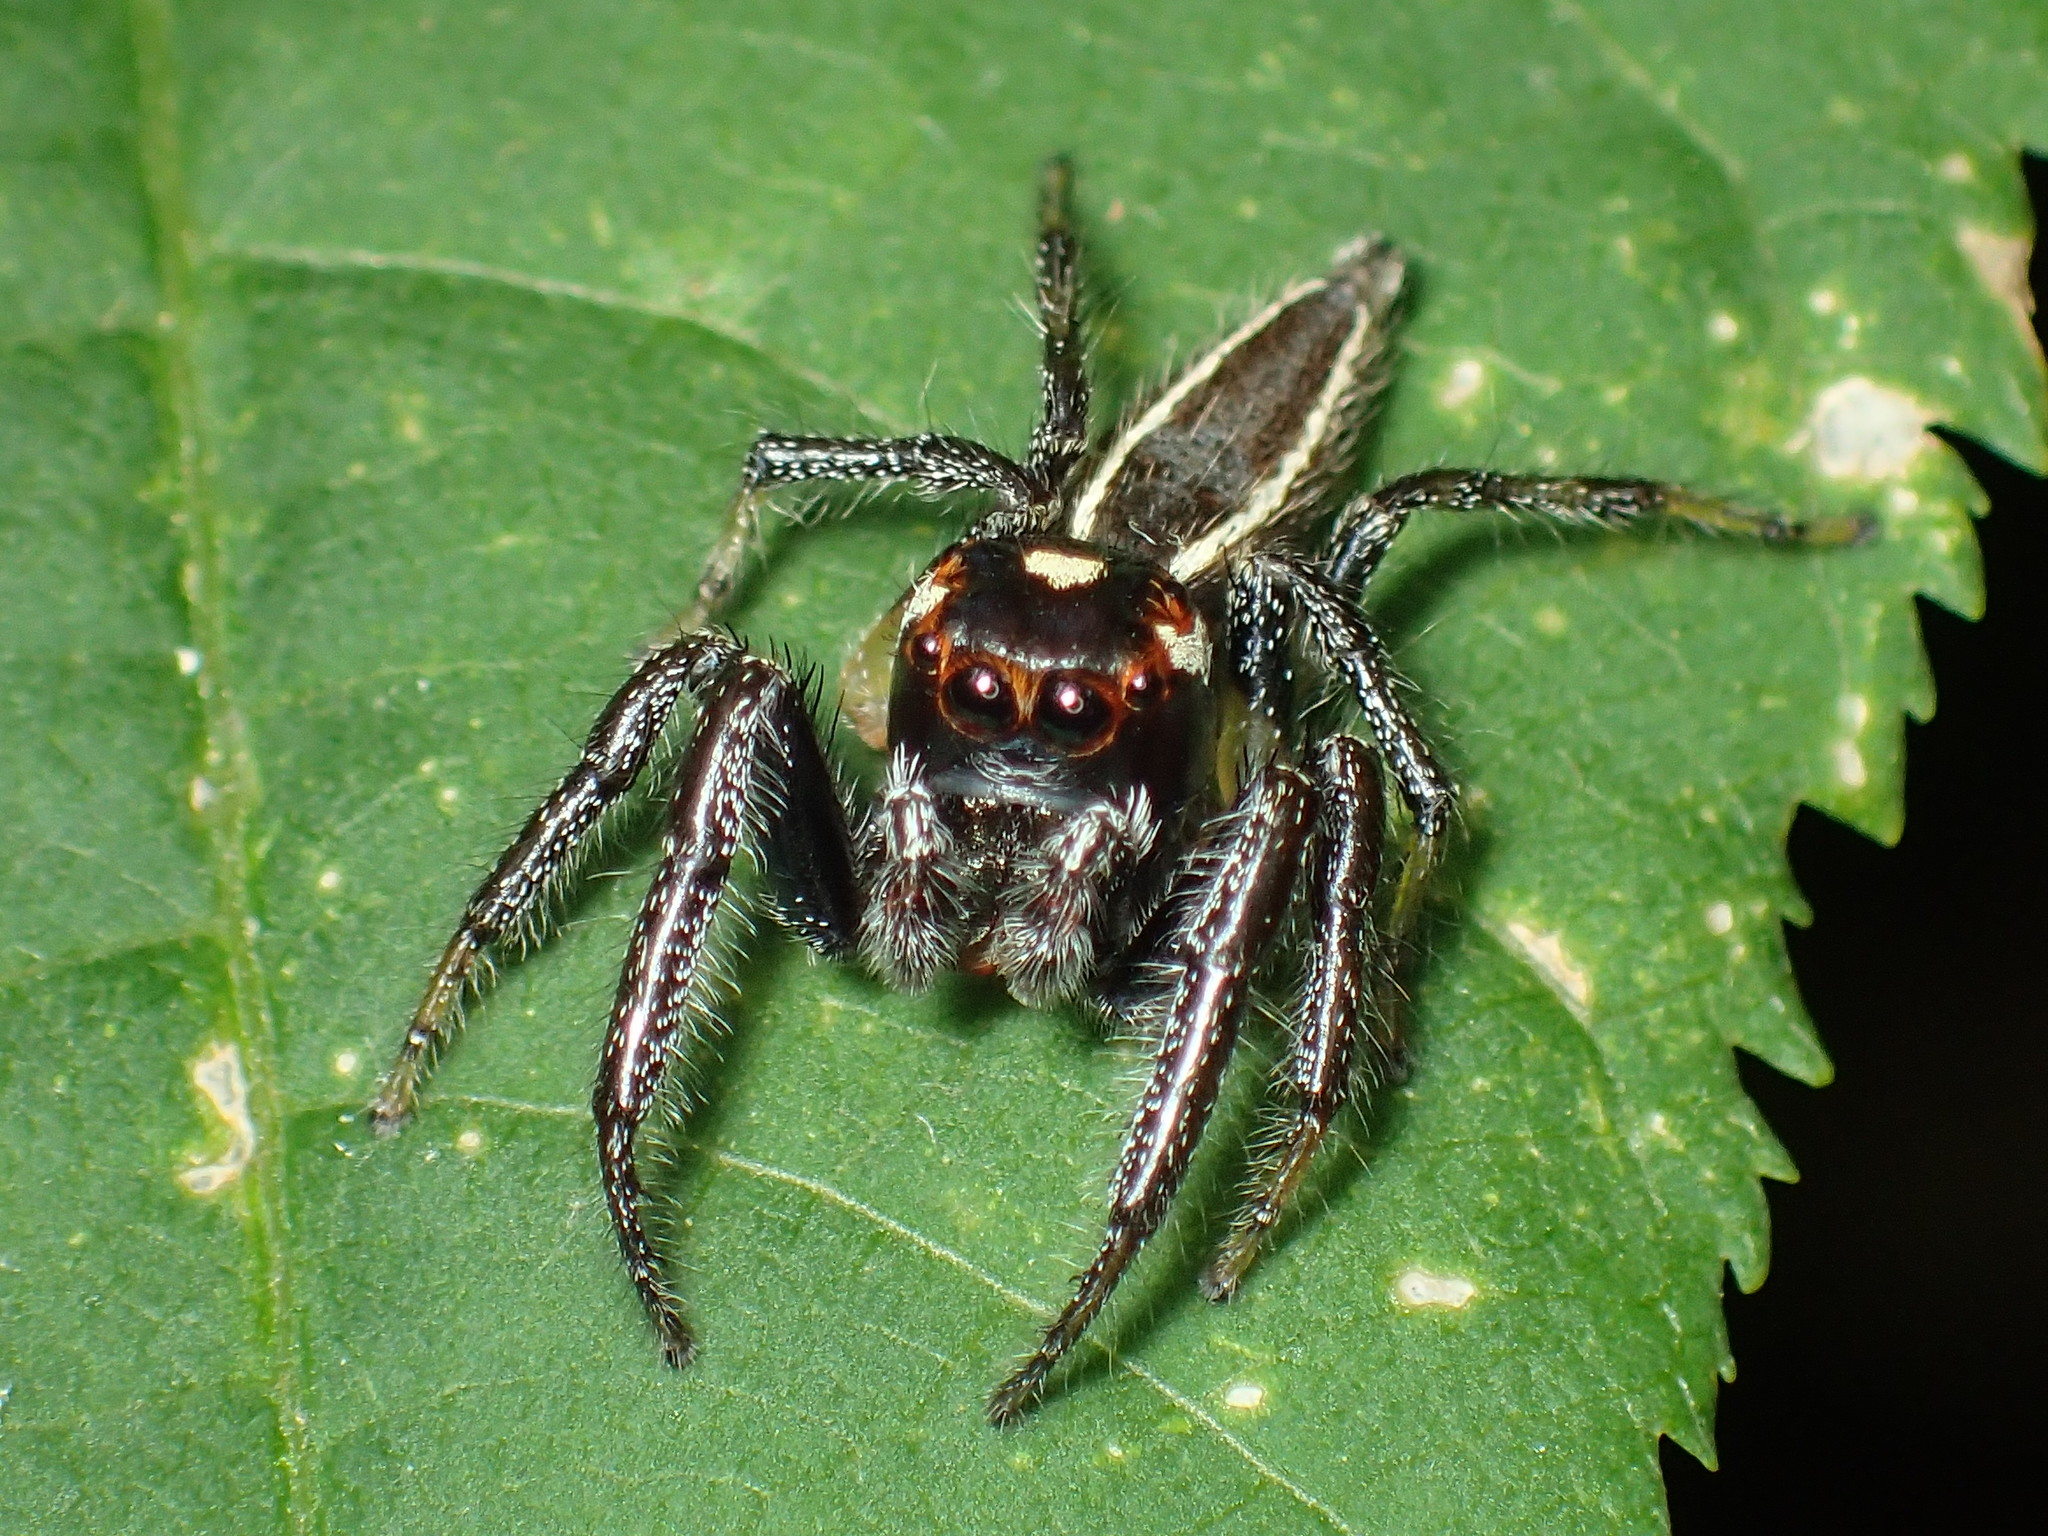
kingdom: Animalia
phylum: Arthropoda
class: Arachnida
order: Araneae
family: Salticidae
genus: Colonus
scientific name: Colonus sylvanus
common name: Jumping spiders
